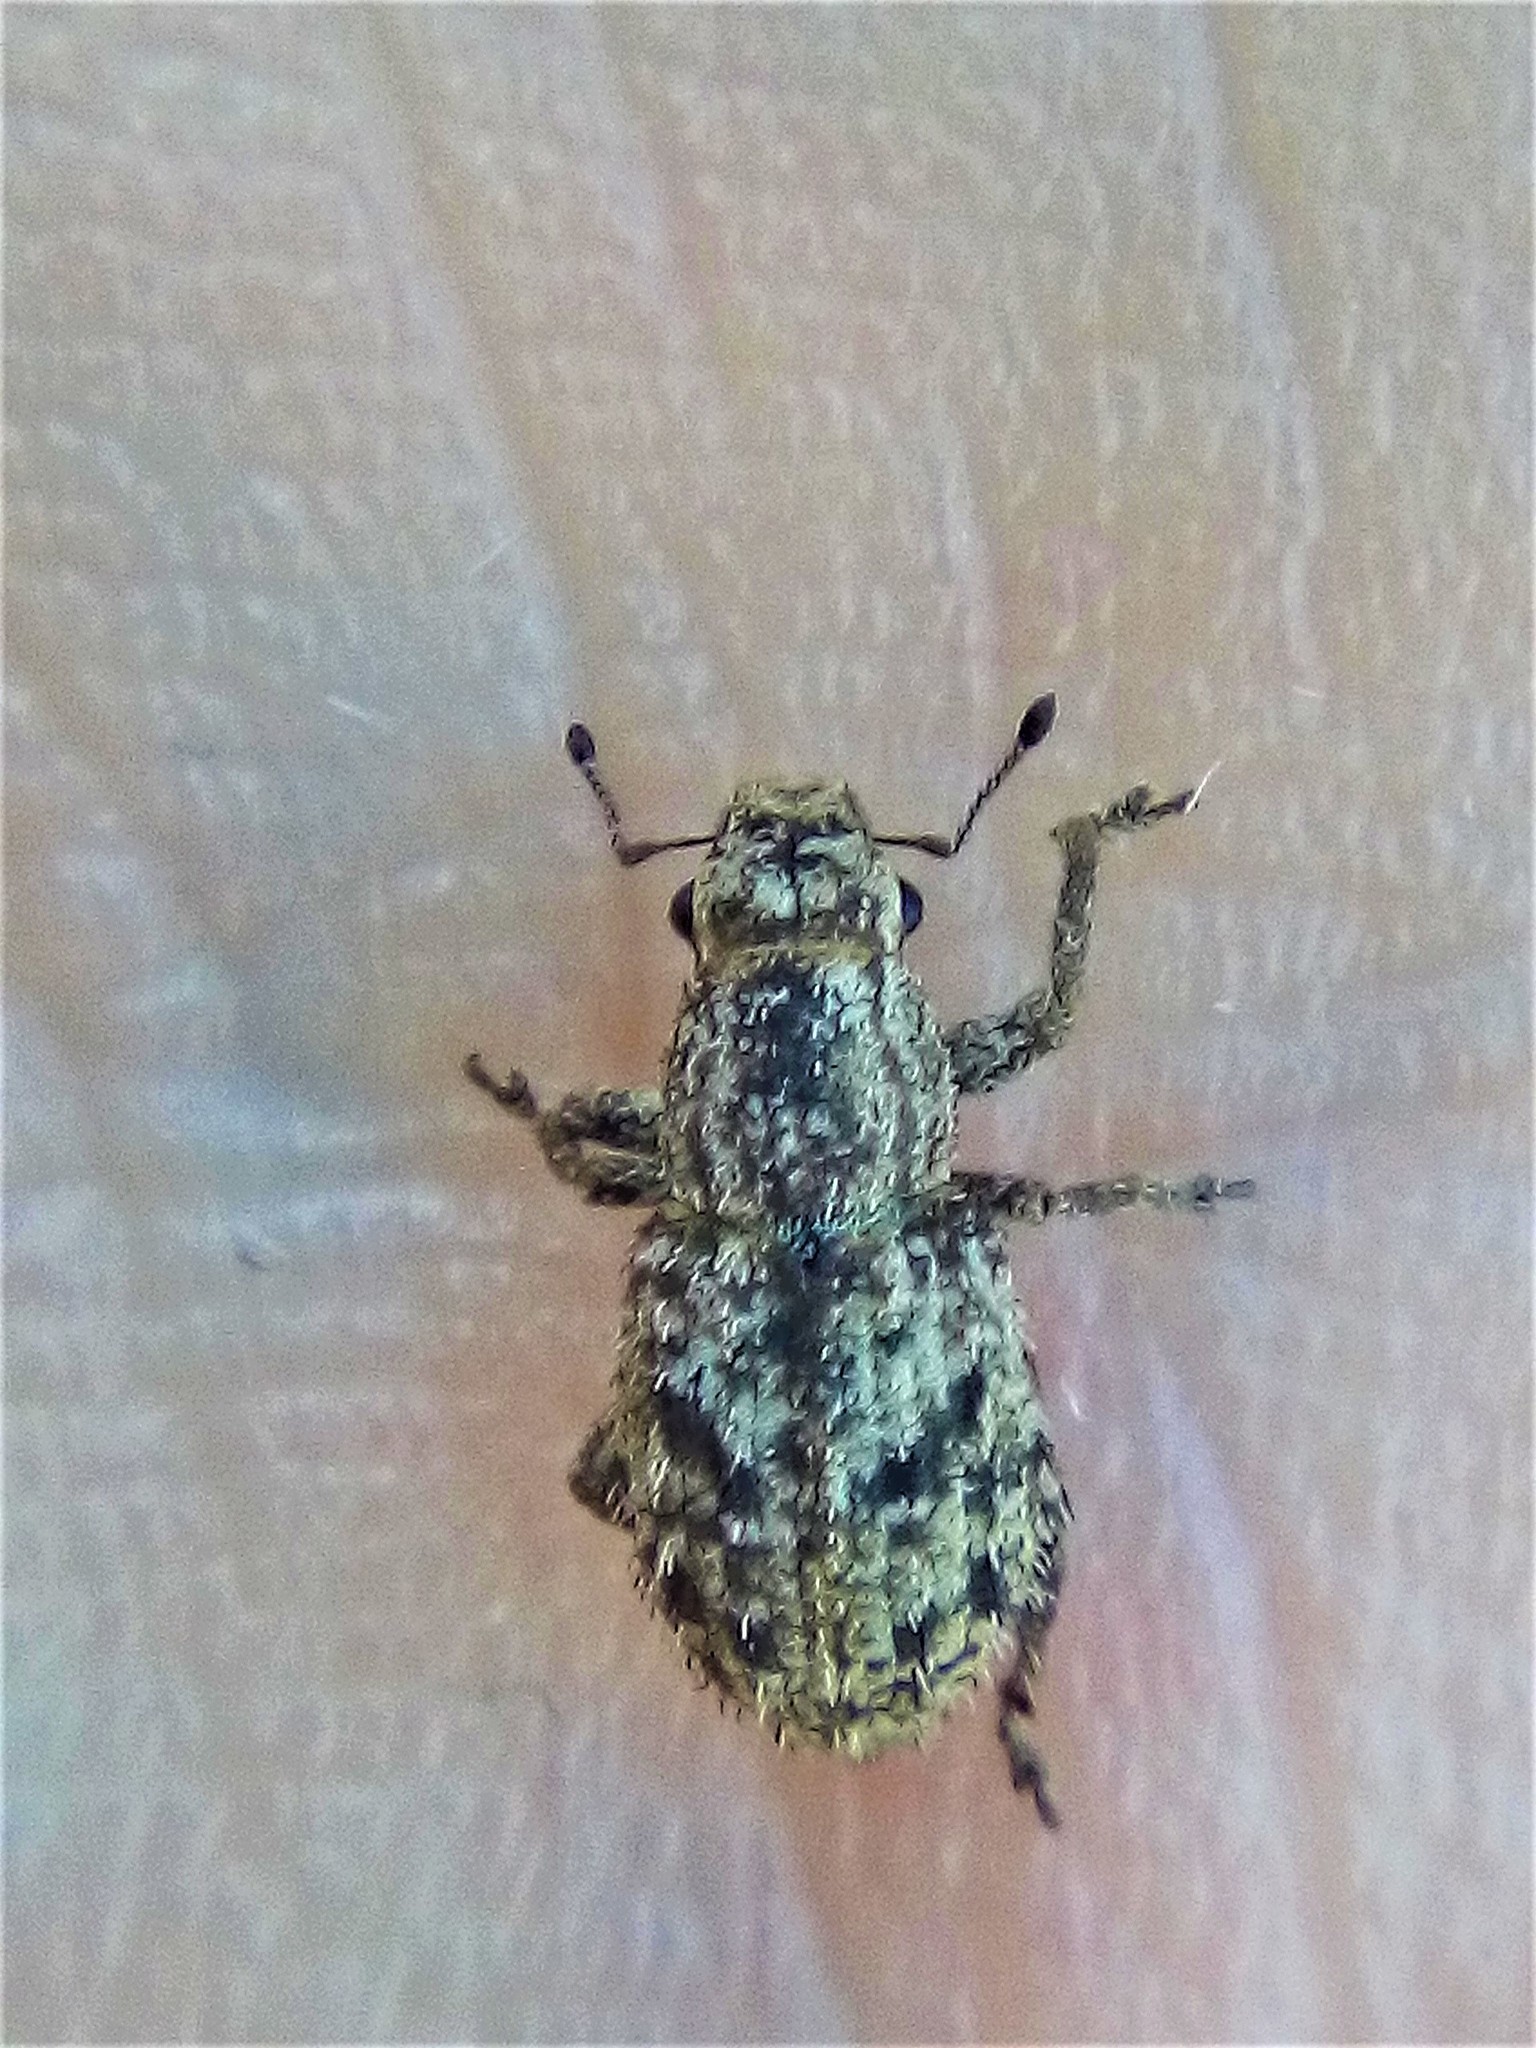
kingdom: Animalia
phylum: Arthropoda
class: Insecta
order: Coleoptera
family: Curculionidae
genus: Floresianus
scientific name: Floresianus sordidus
